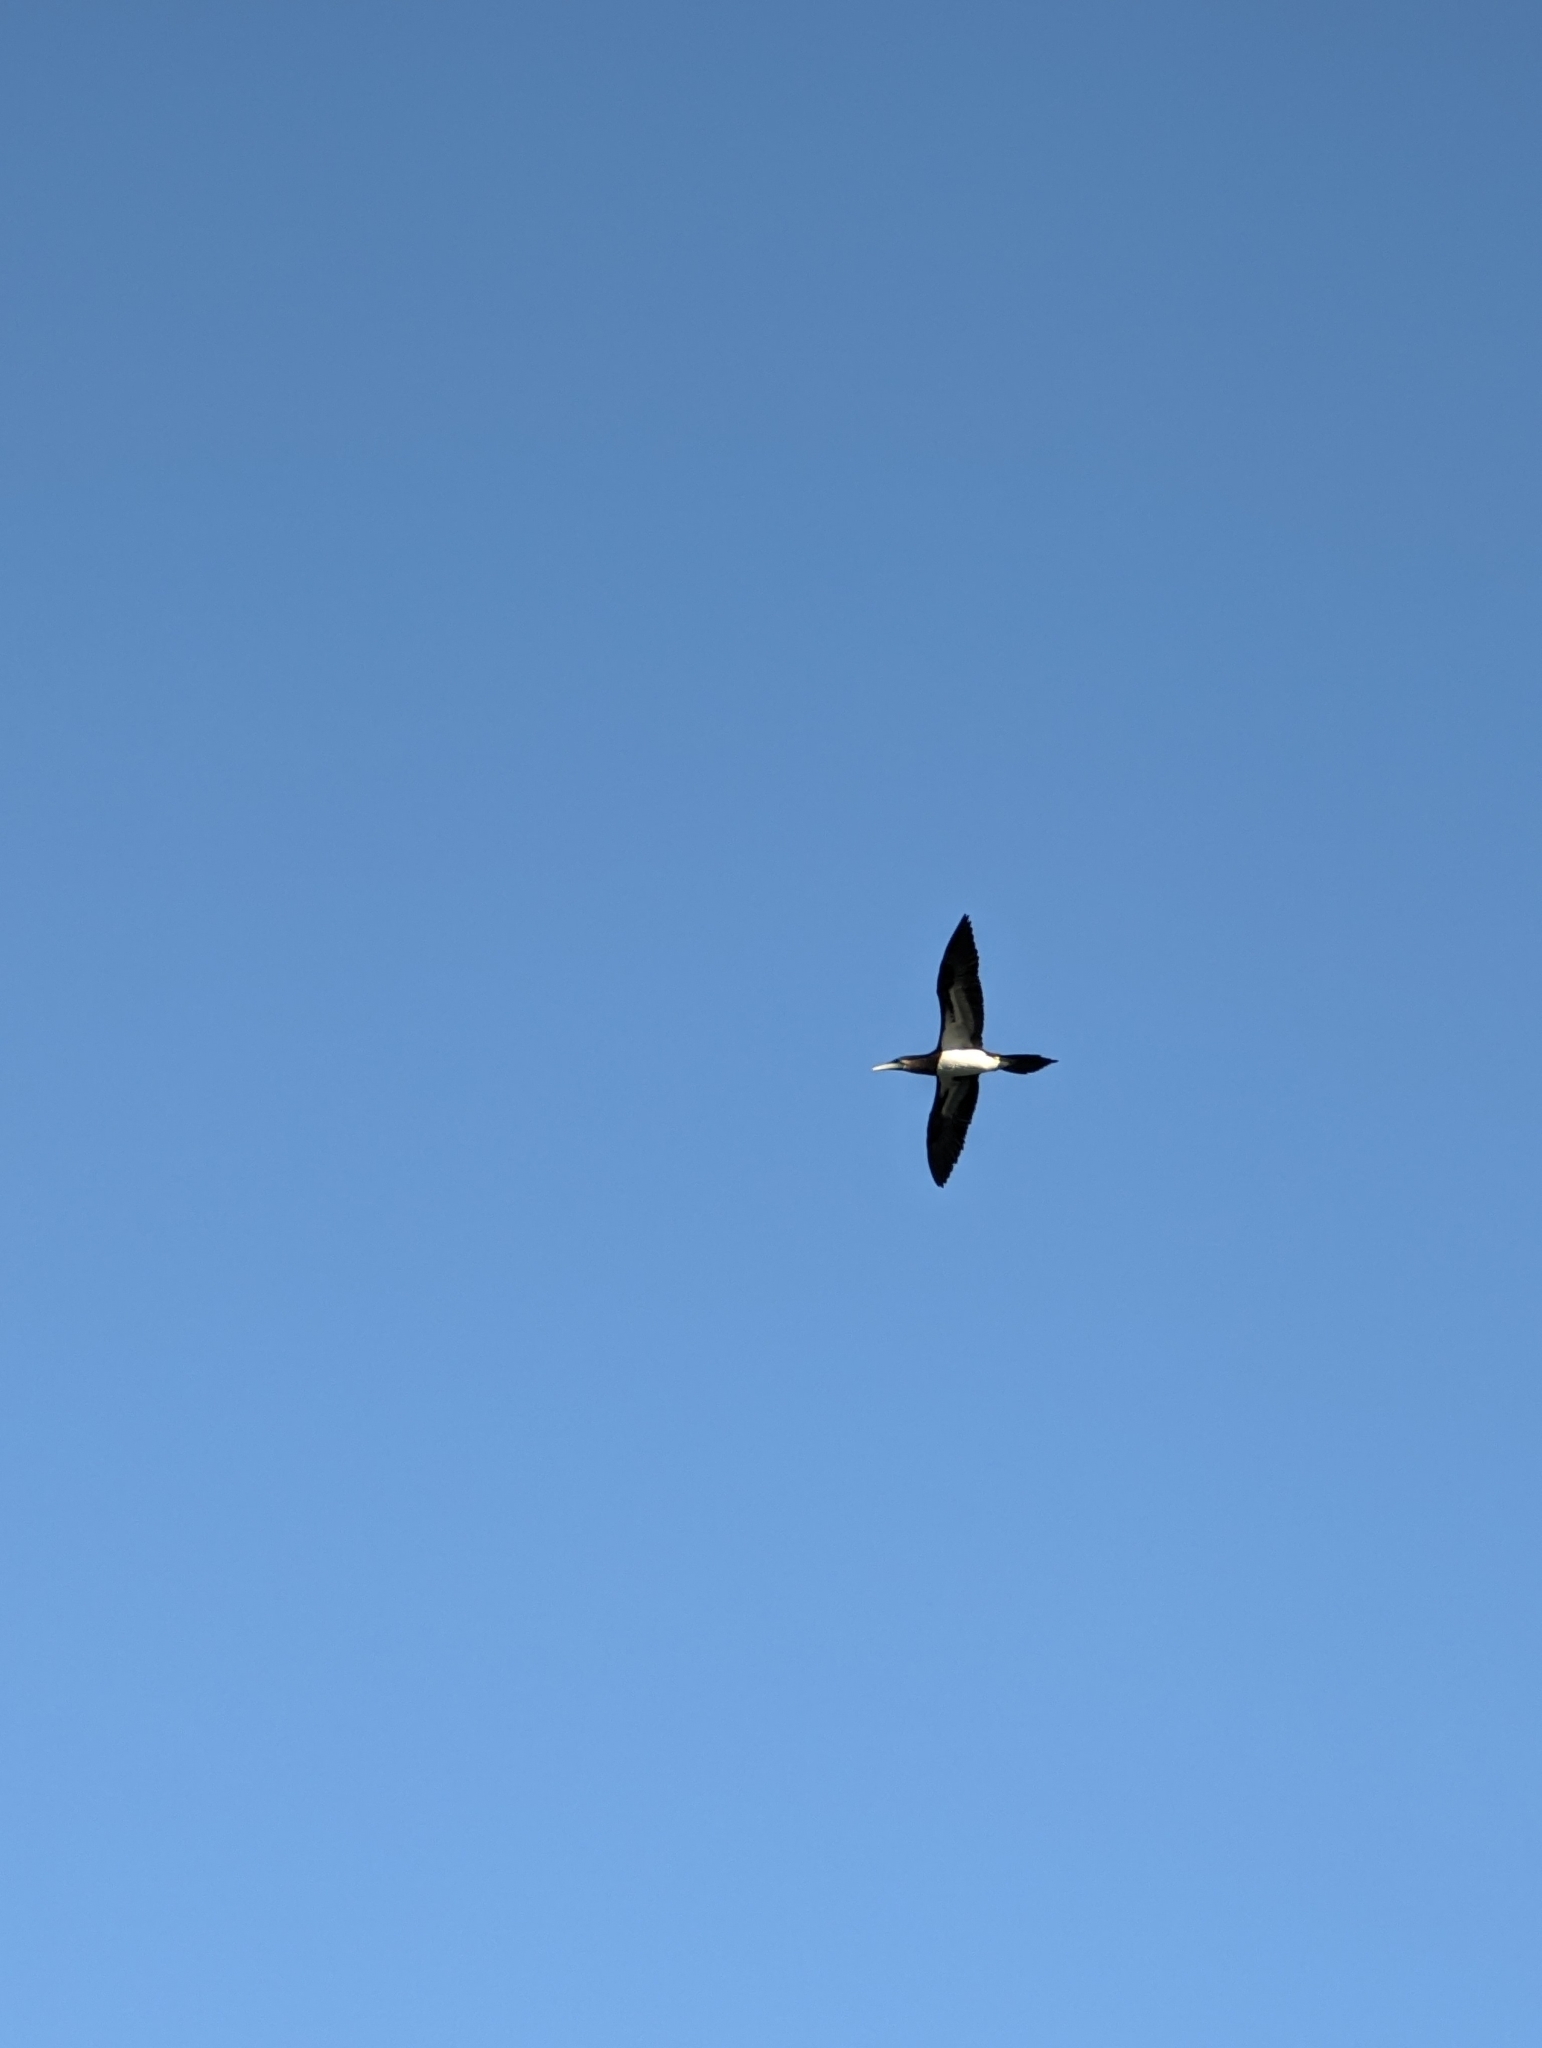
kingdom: Animalia
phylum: Chordata
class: Aves
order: Suliformes
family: Sulidae
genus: Sula
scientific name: Sula leucogaster
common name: Brown booby
